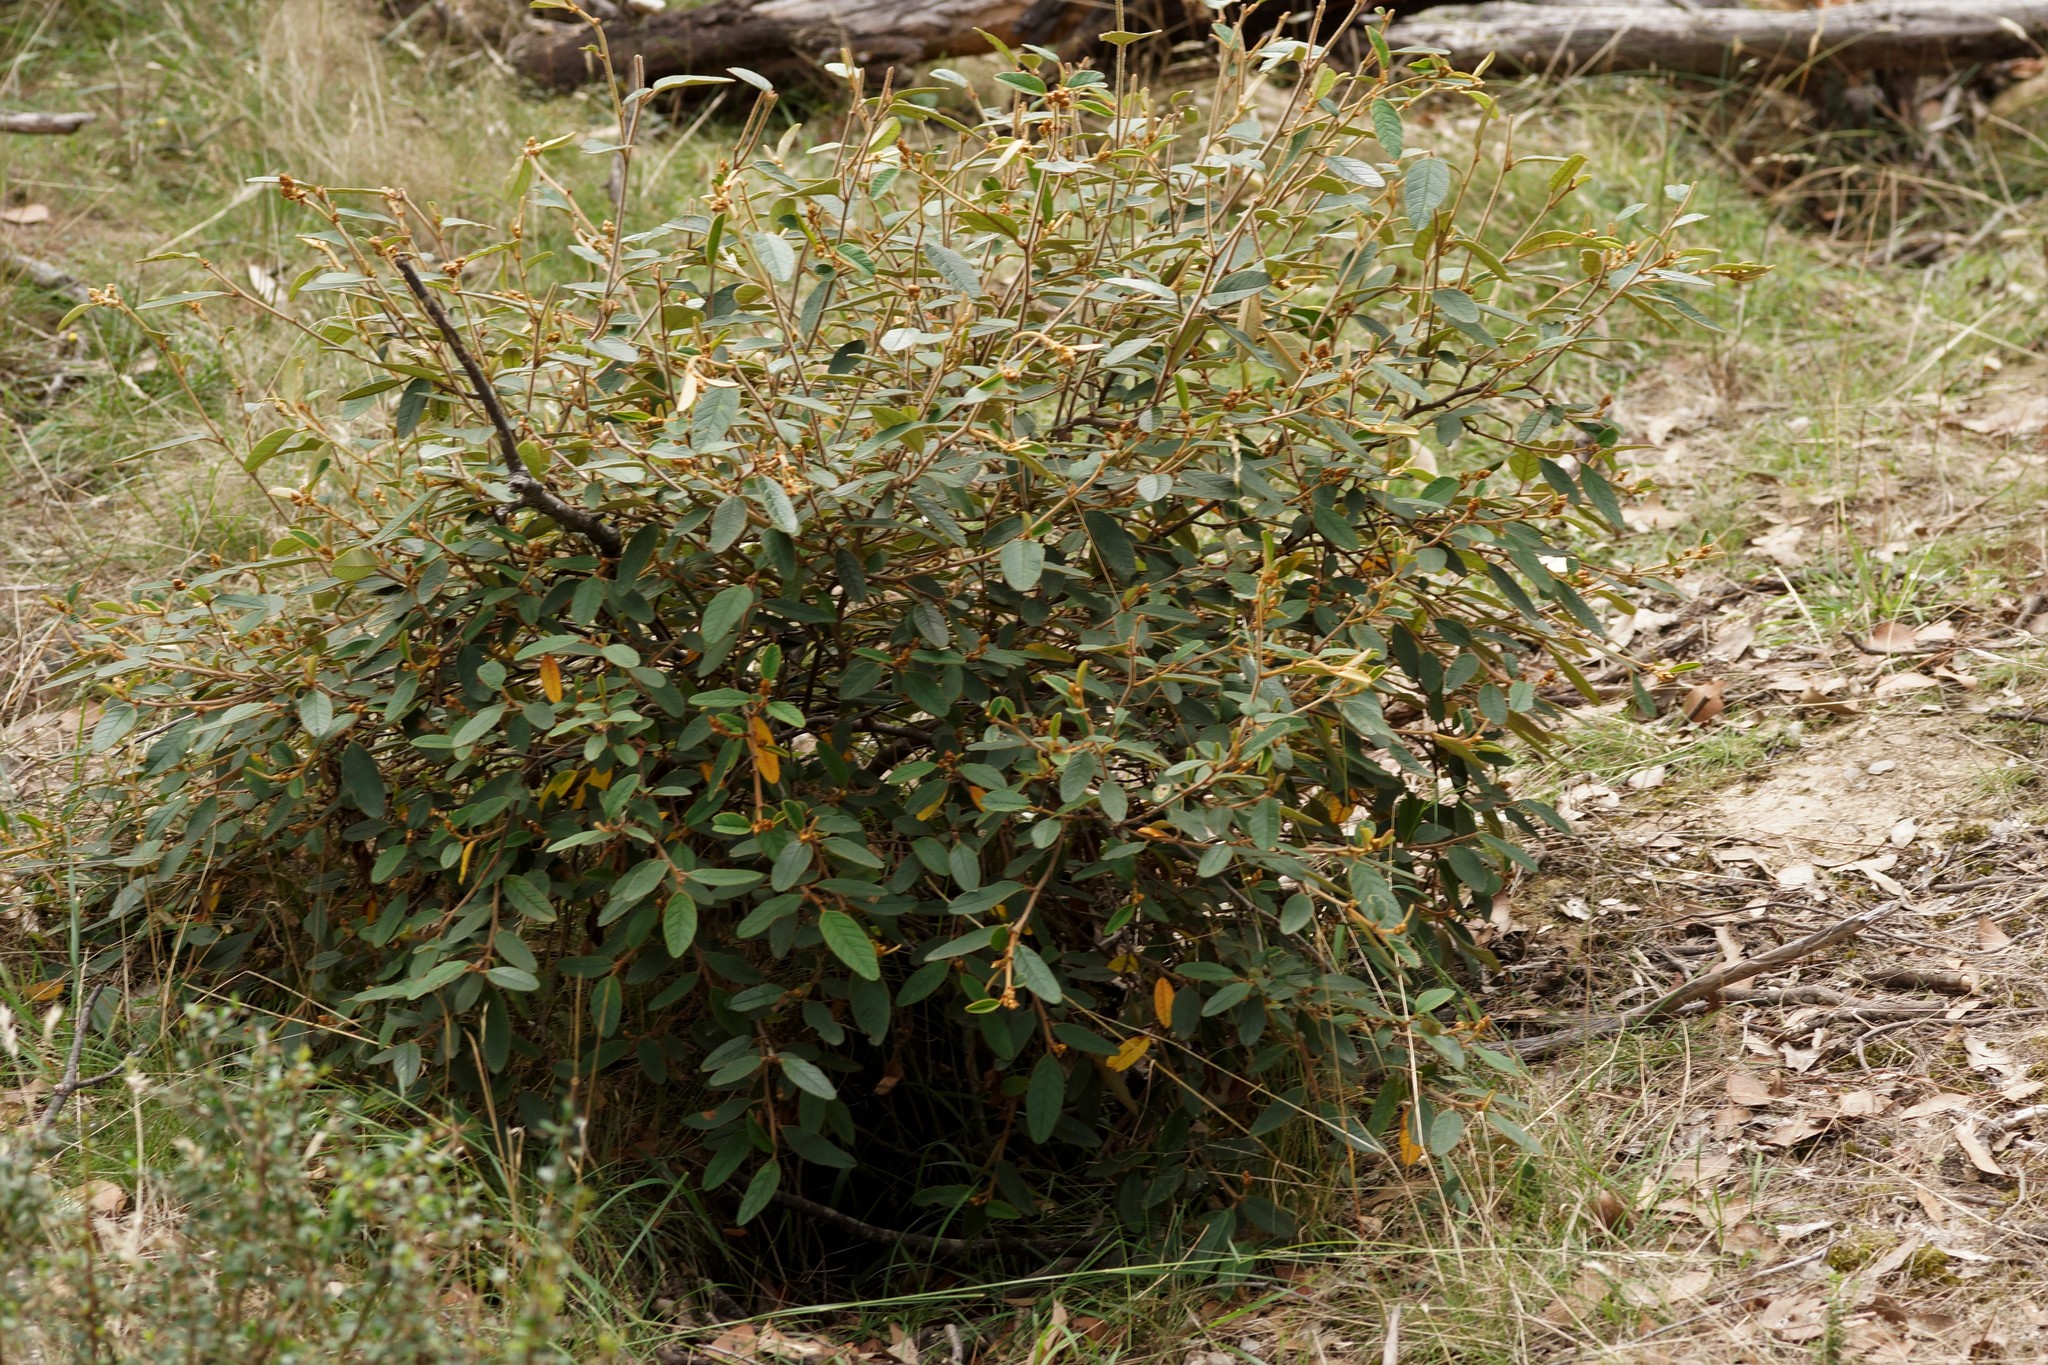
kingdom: Plantae
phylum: Tracheophyta
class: Magnoliopsida
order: Rosales
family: Rhamnaceae
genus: Pomaderris
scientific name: Pomaderris wendlandiana
